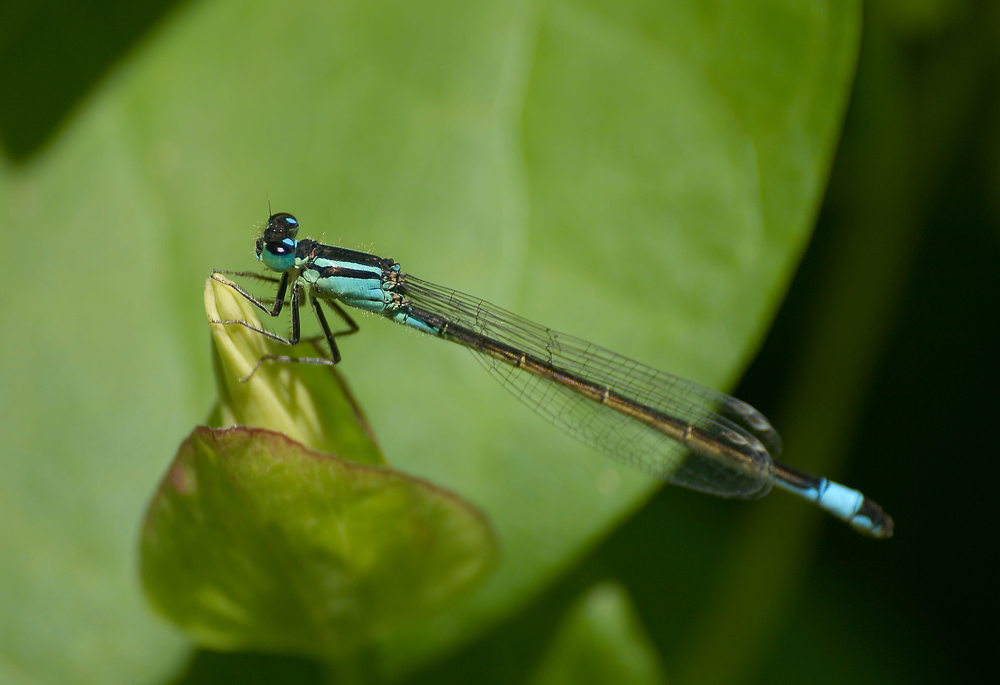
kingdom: Animalia
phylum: Arthropoda
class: Insecta
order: Odonata
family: Coenagrionidae
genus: Ischnura
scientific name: Ischnura elegans
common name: Blue-tailed damselfly
